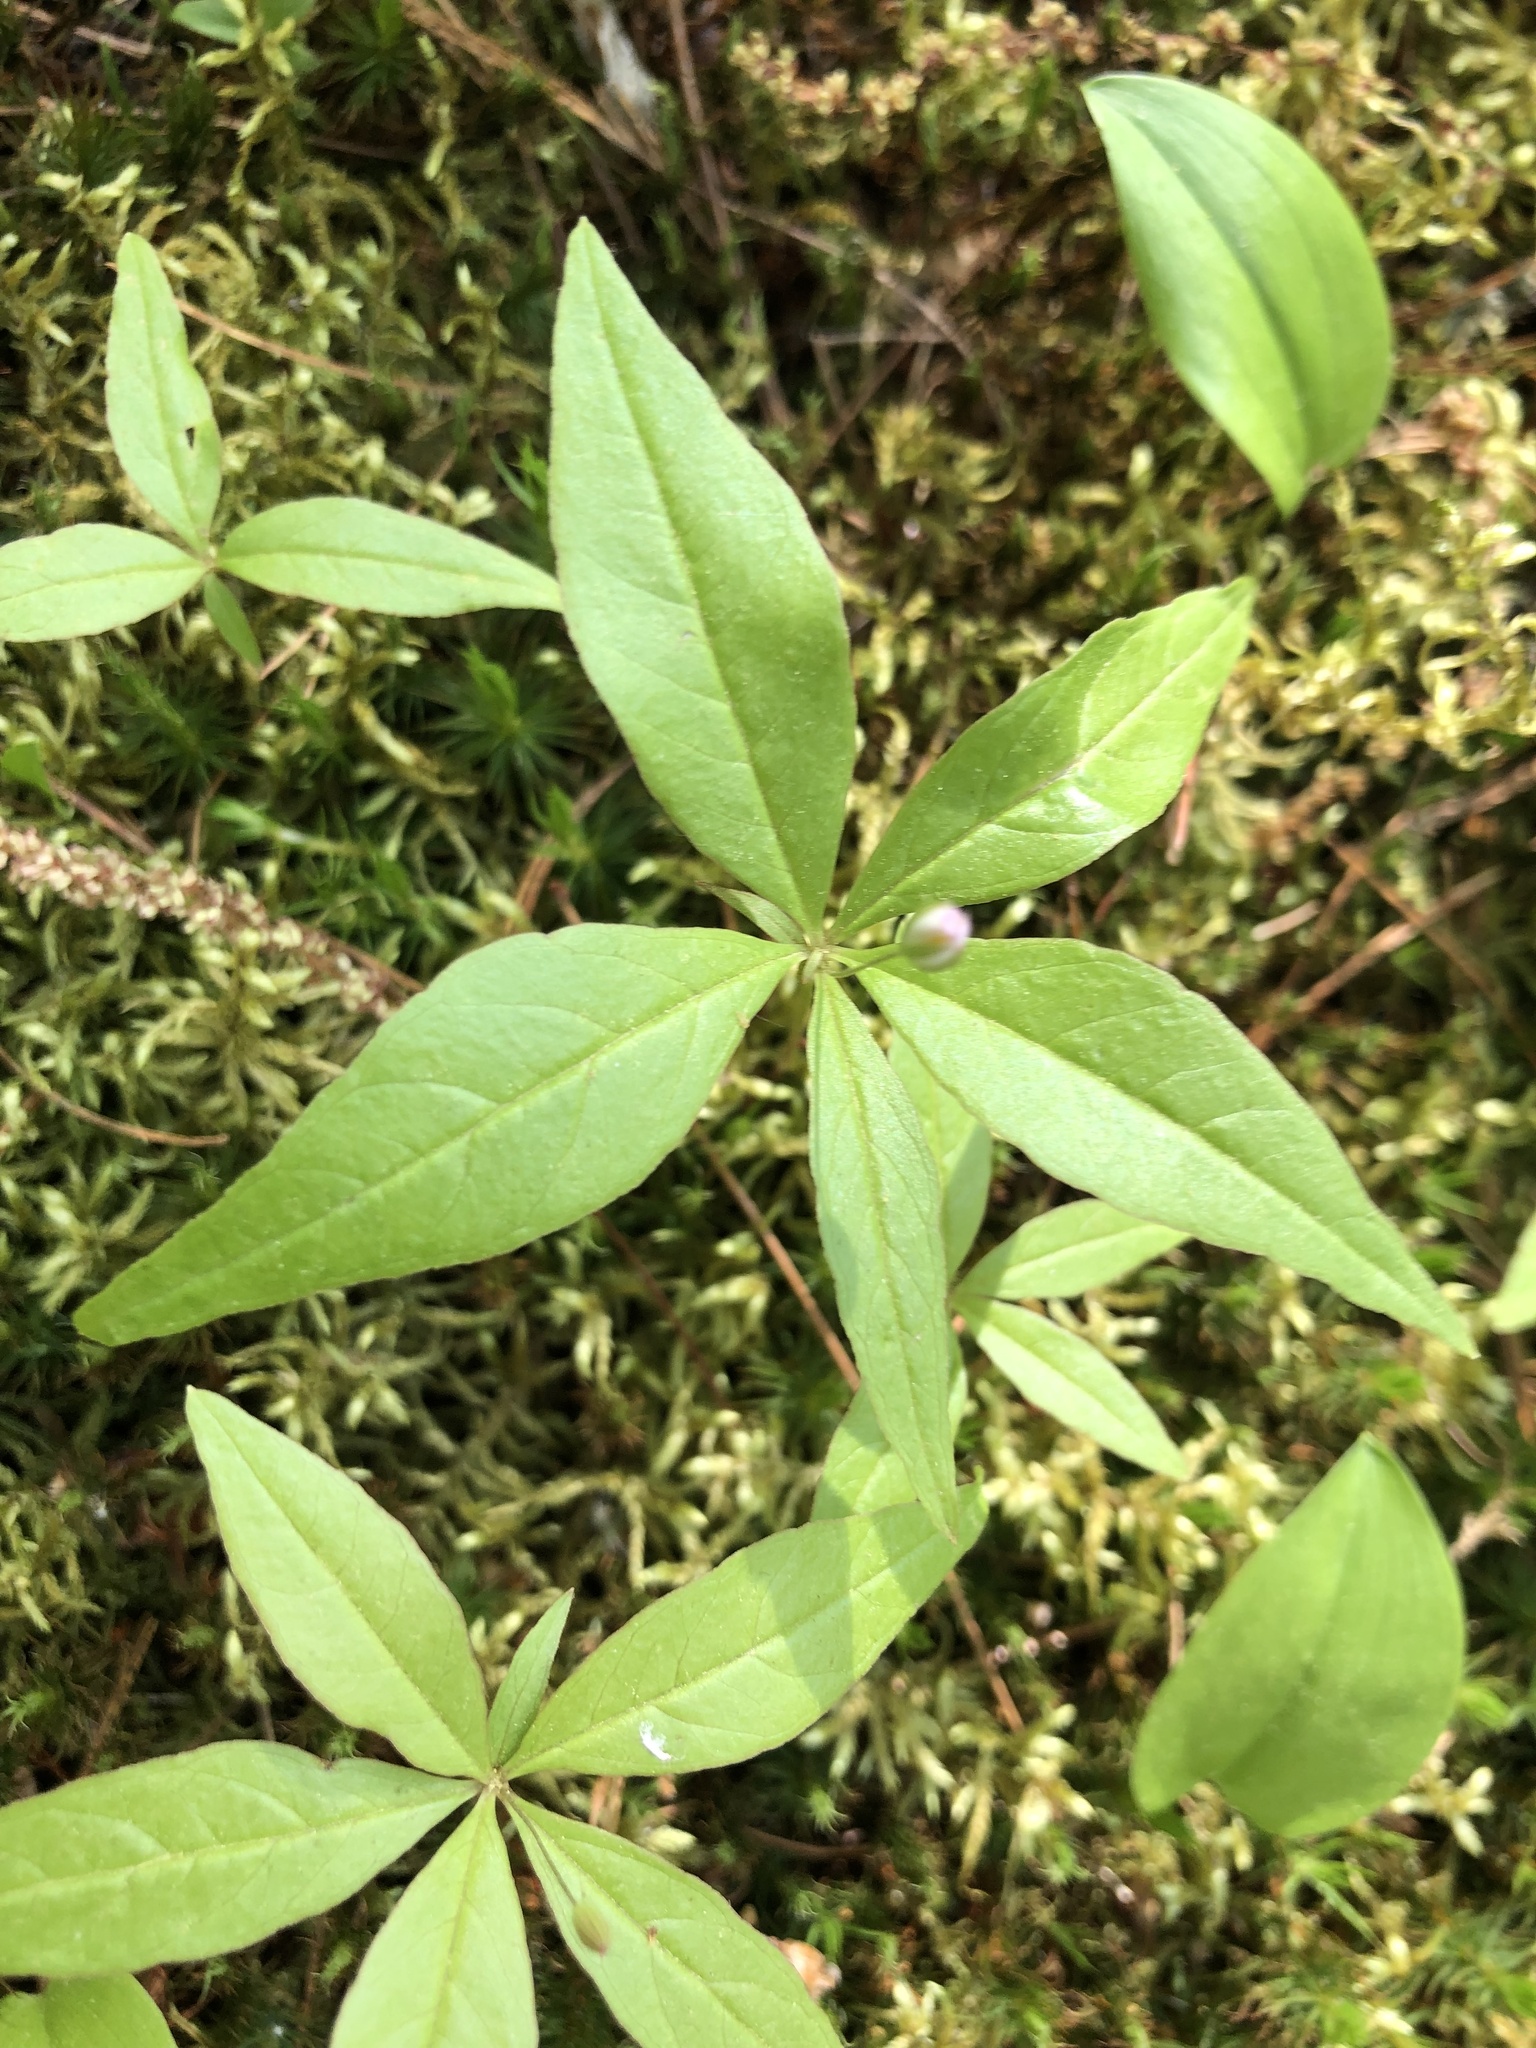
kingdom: Plantae
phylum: Tracheophyta
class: Magnoliopsida
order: Ericales
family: Primulaceae
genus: Lysimachia
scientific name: Lysimachia borealis
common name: American starflower
